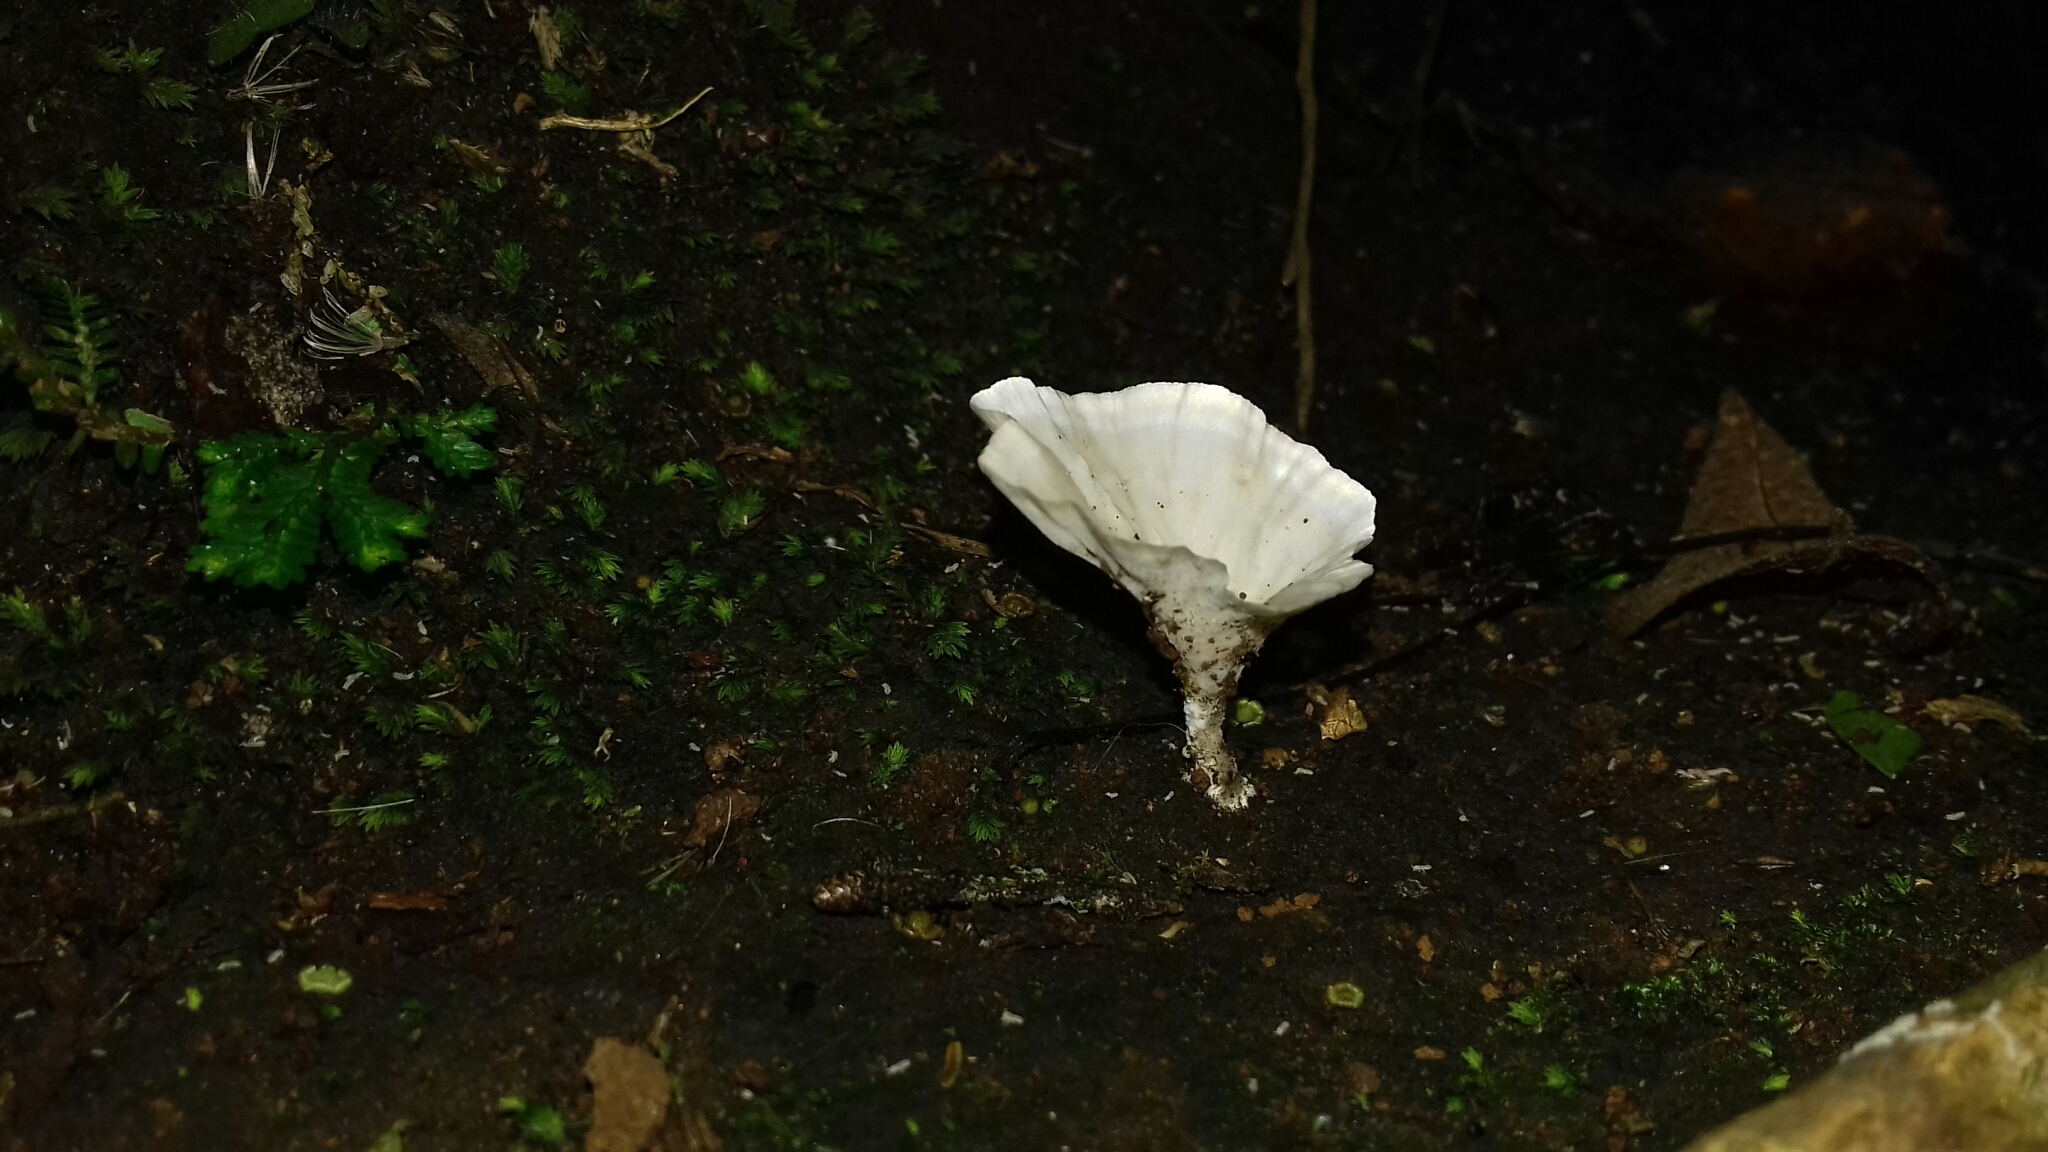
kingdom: Fungi
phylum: Basidiomycota
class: Agaricomycetes
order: Hymenochaetales
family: Rickenellaceae
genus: Cotylidia
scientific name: Cotylidia diaphana
